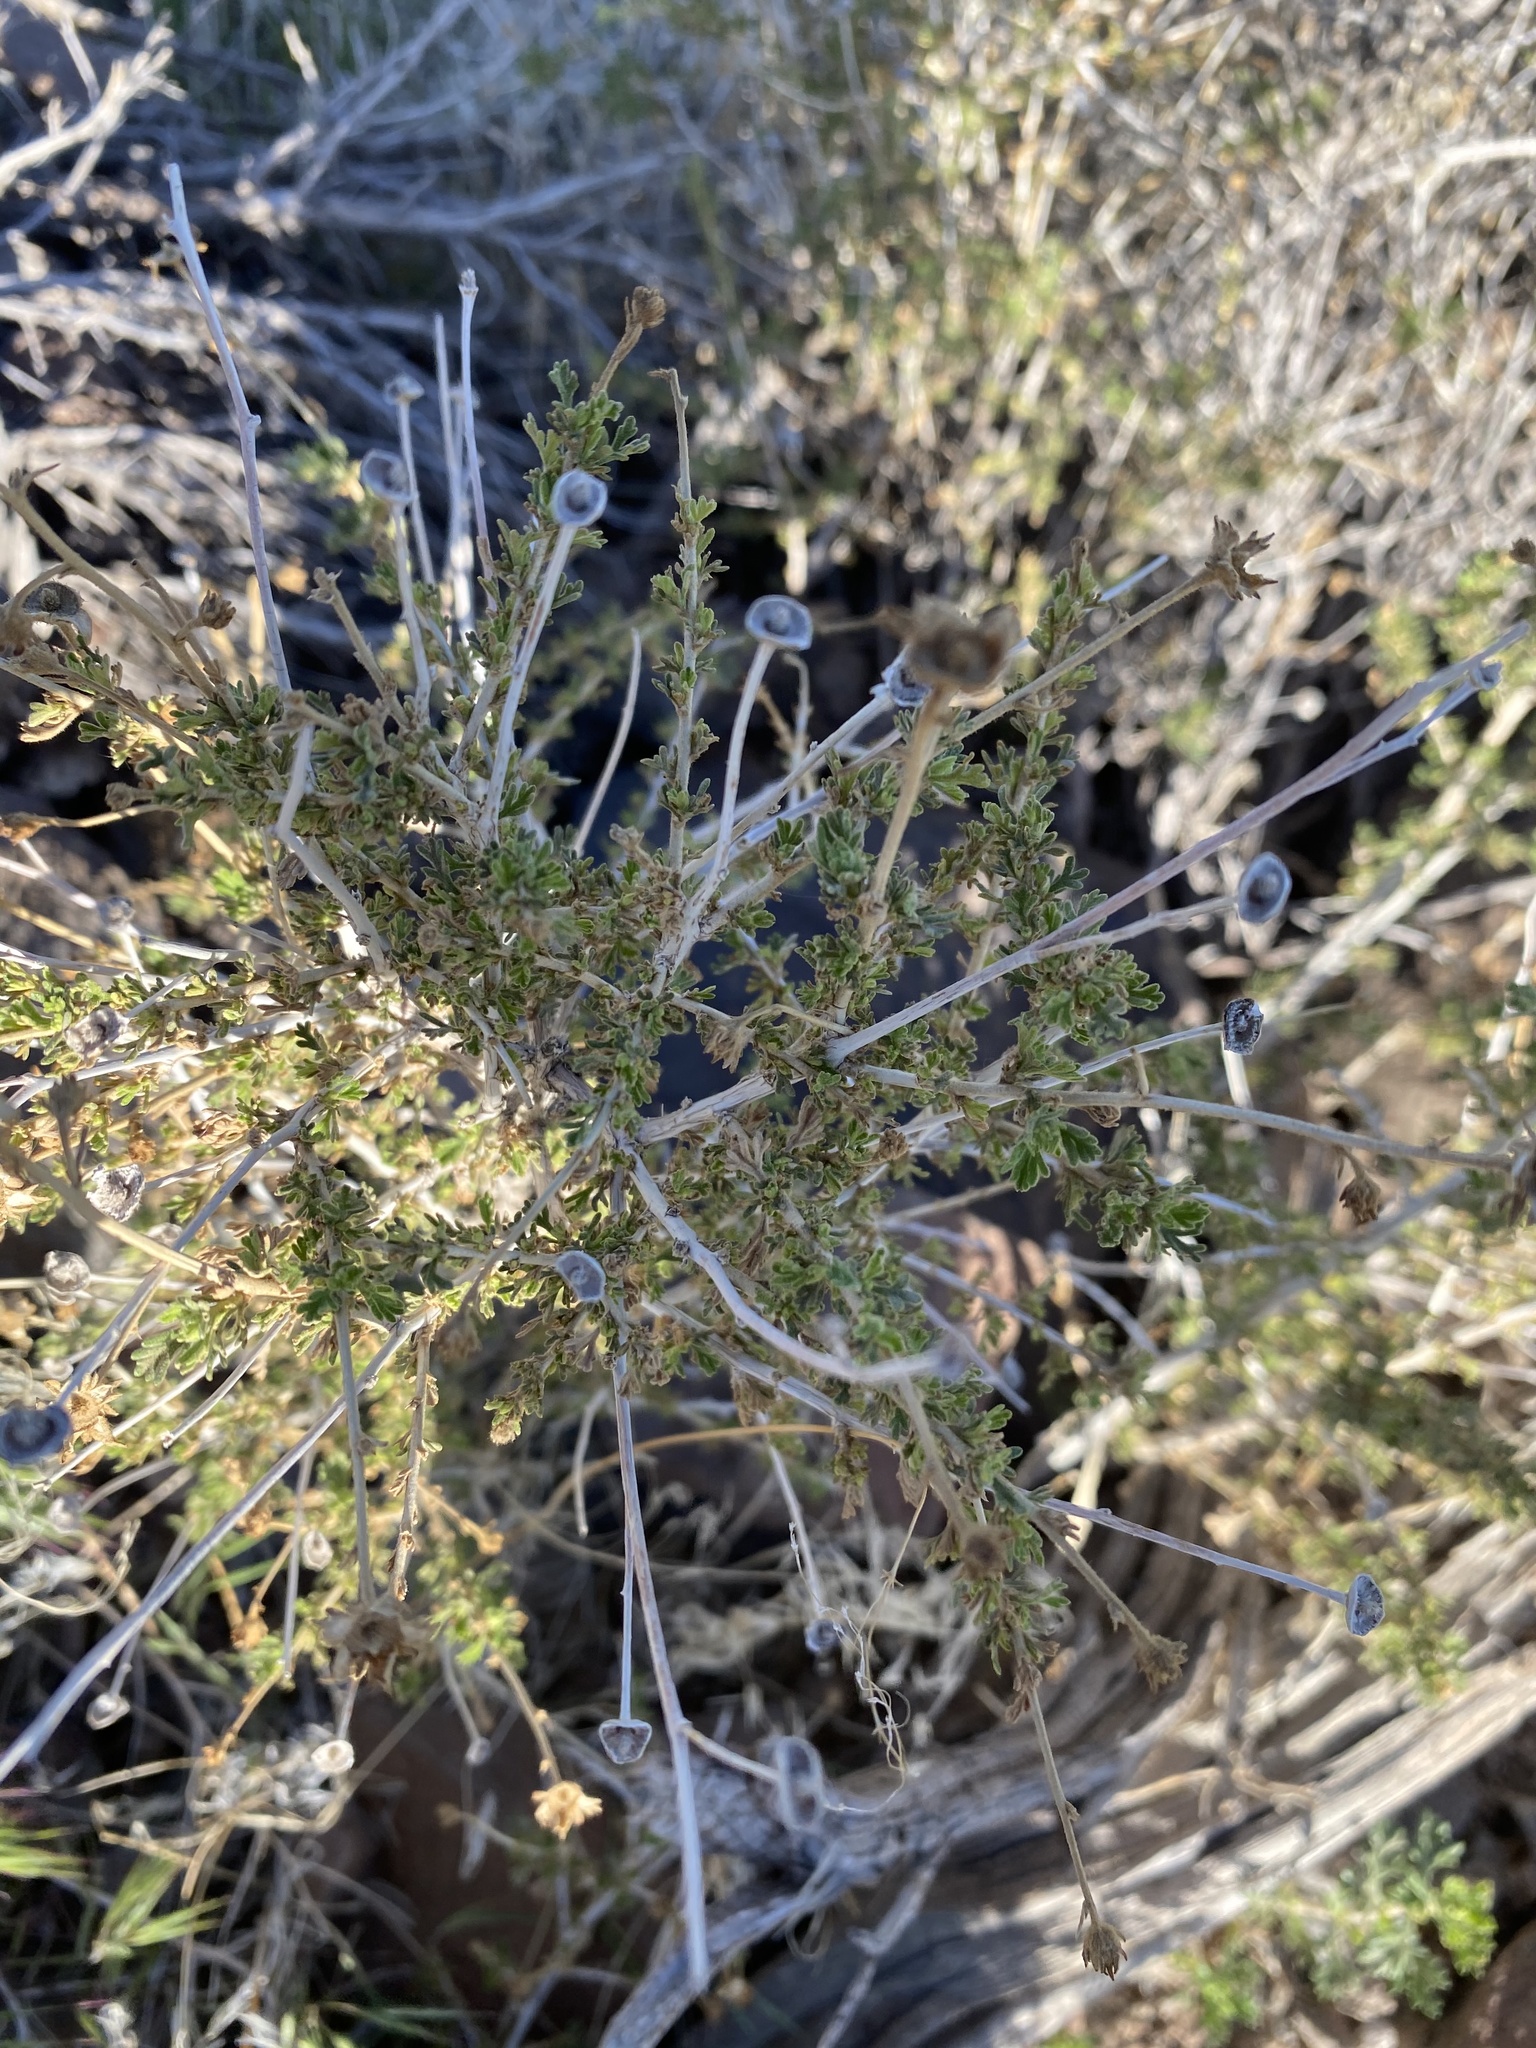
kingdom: Plantae
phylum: Tracheophyta
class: Magnoliopsida
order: Rosales
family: Rosaceae
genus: Fallugia
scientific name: Fallugia paradoxa
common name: Apache-plume
